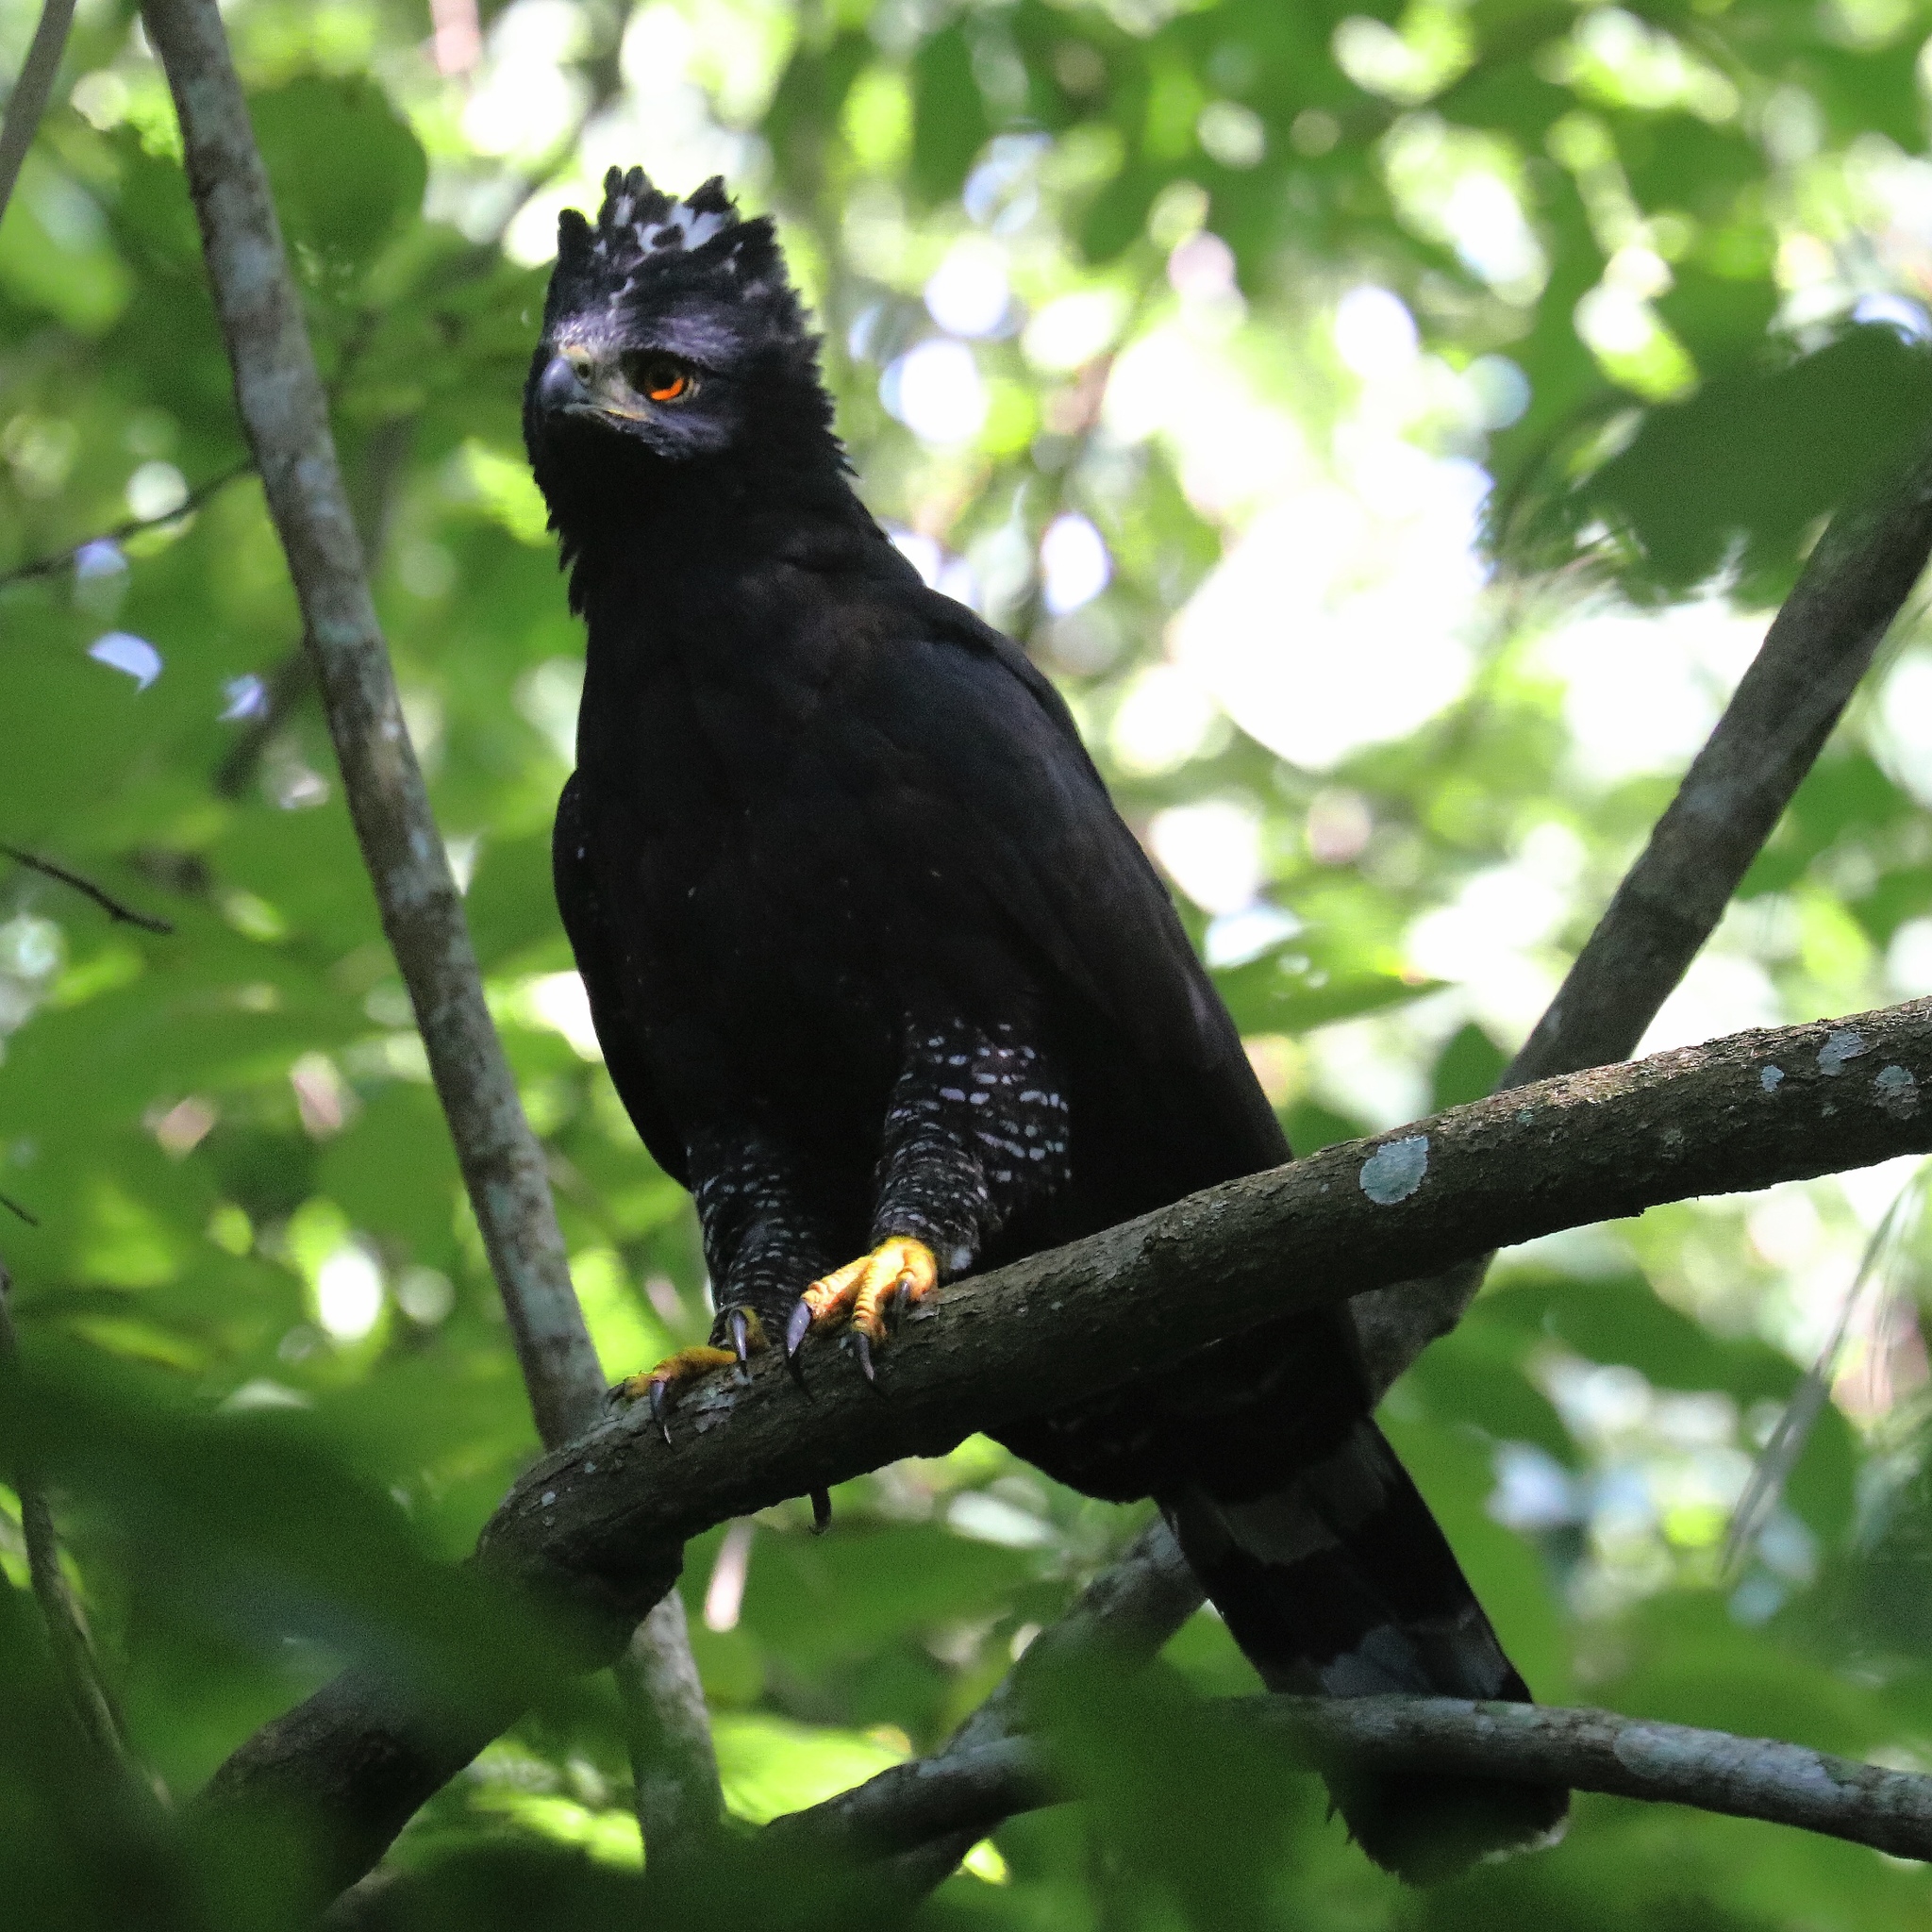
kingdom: Animalia
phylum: Chordata
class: Aves
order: Accipitriformes
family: Accipitridae
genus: Spizaetus
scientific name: Spizaetus tyrannus
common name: Black hawk-eagle
